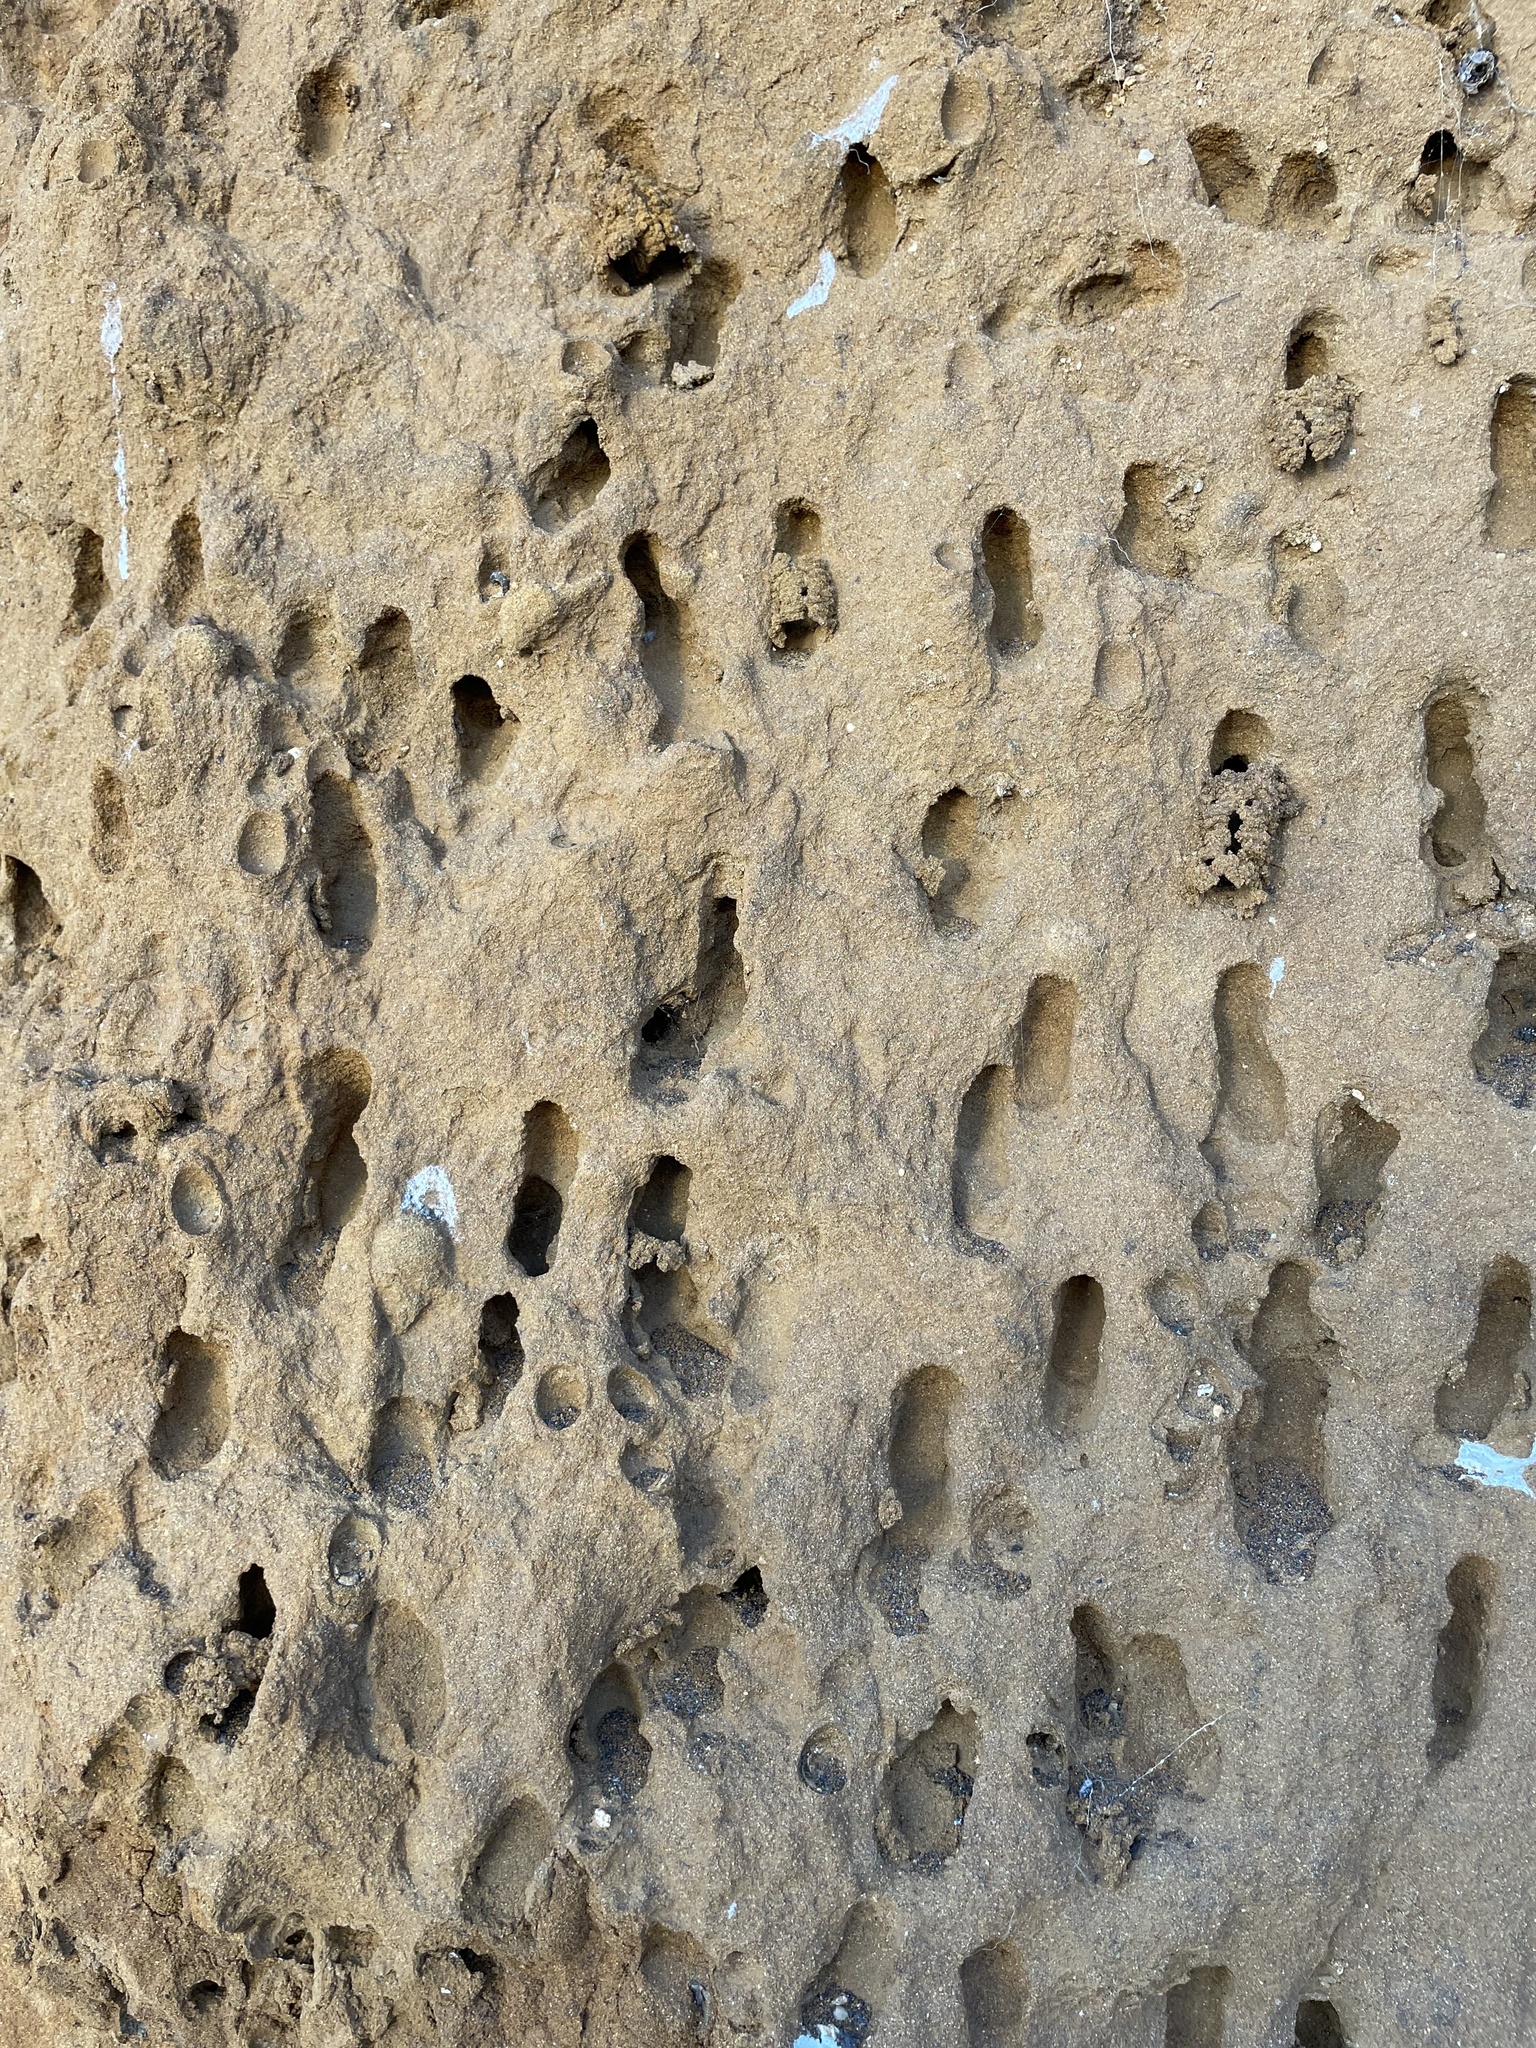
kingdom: Animalia
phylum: Arthropoda
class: Insecta
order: Hymenoptera
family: Apidae
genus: Anthophora
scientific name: Anthophora bomboides
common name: Bumble-bee-mimic digger bee
